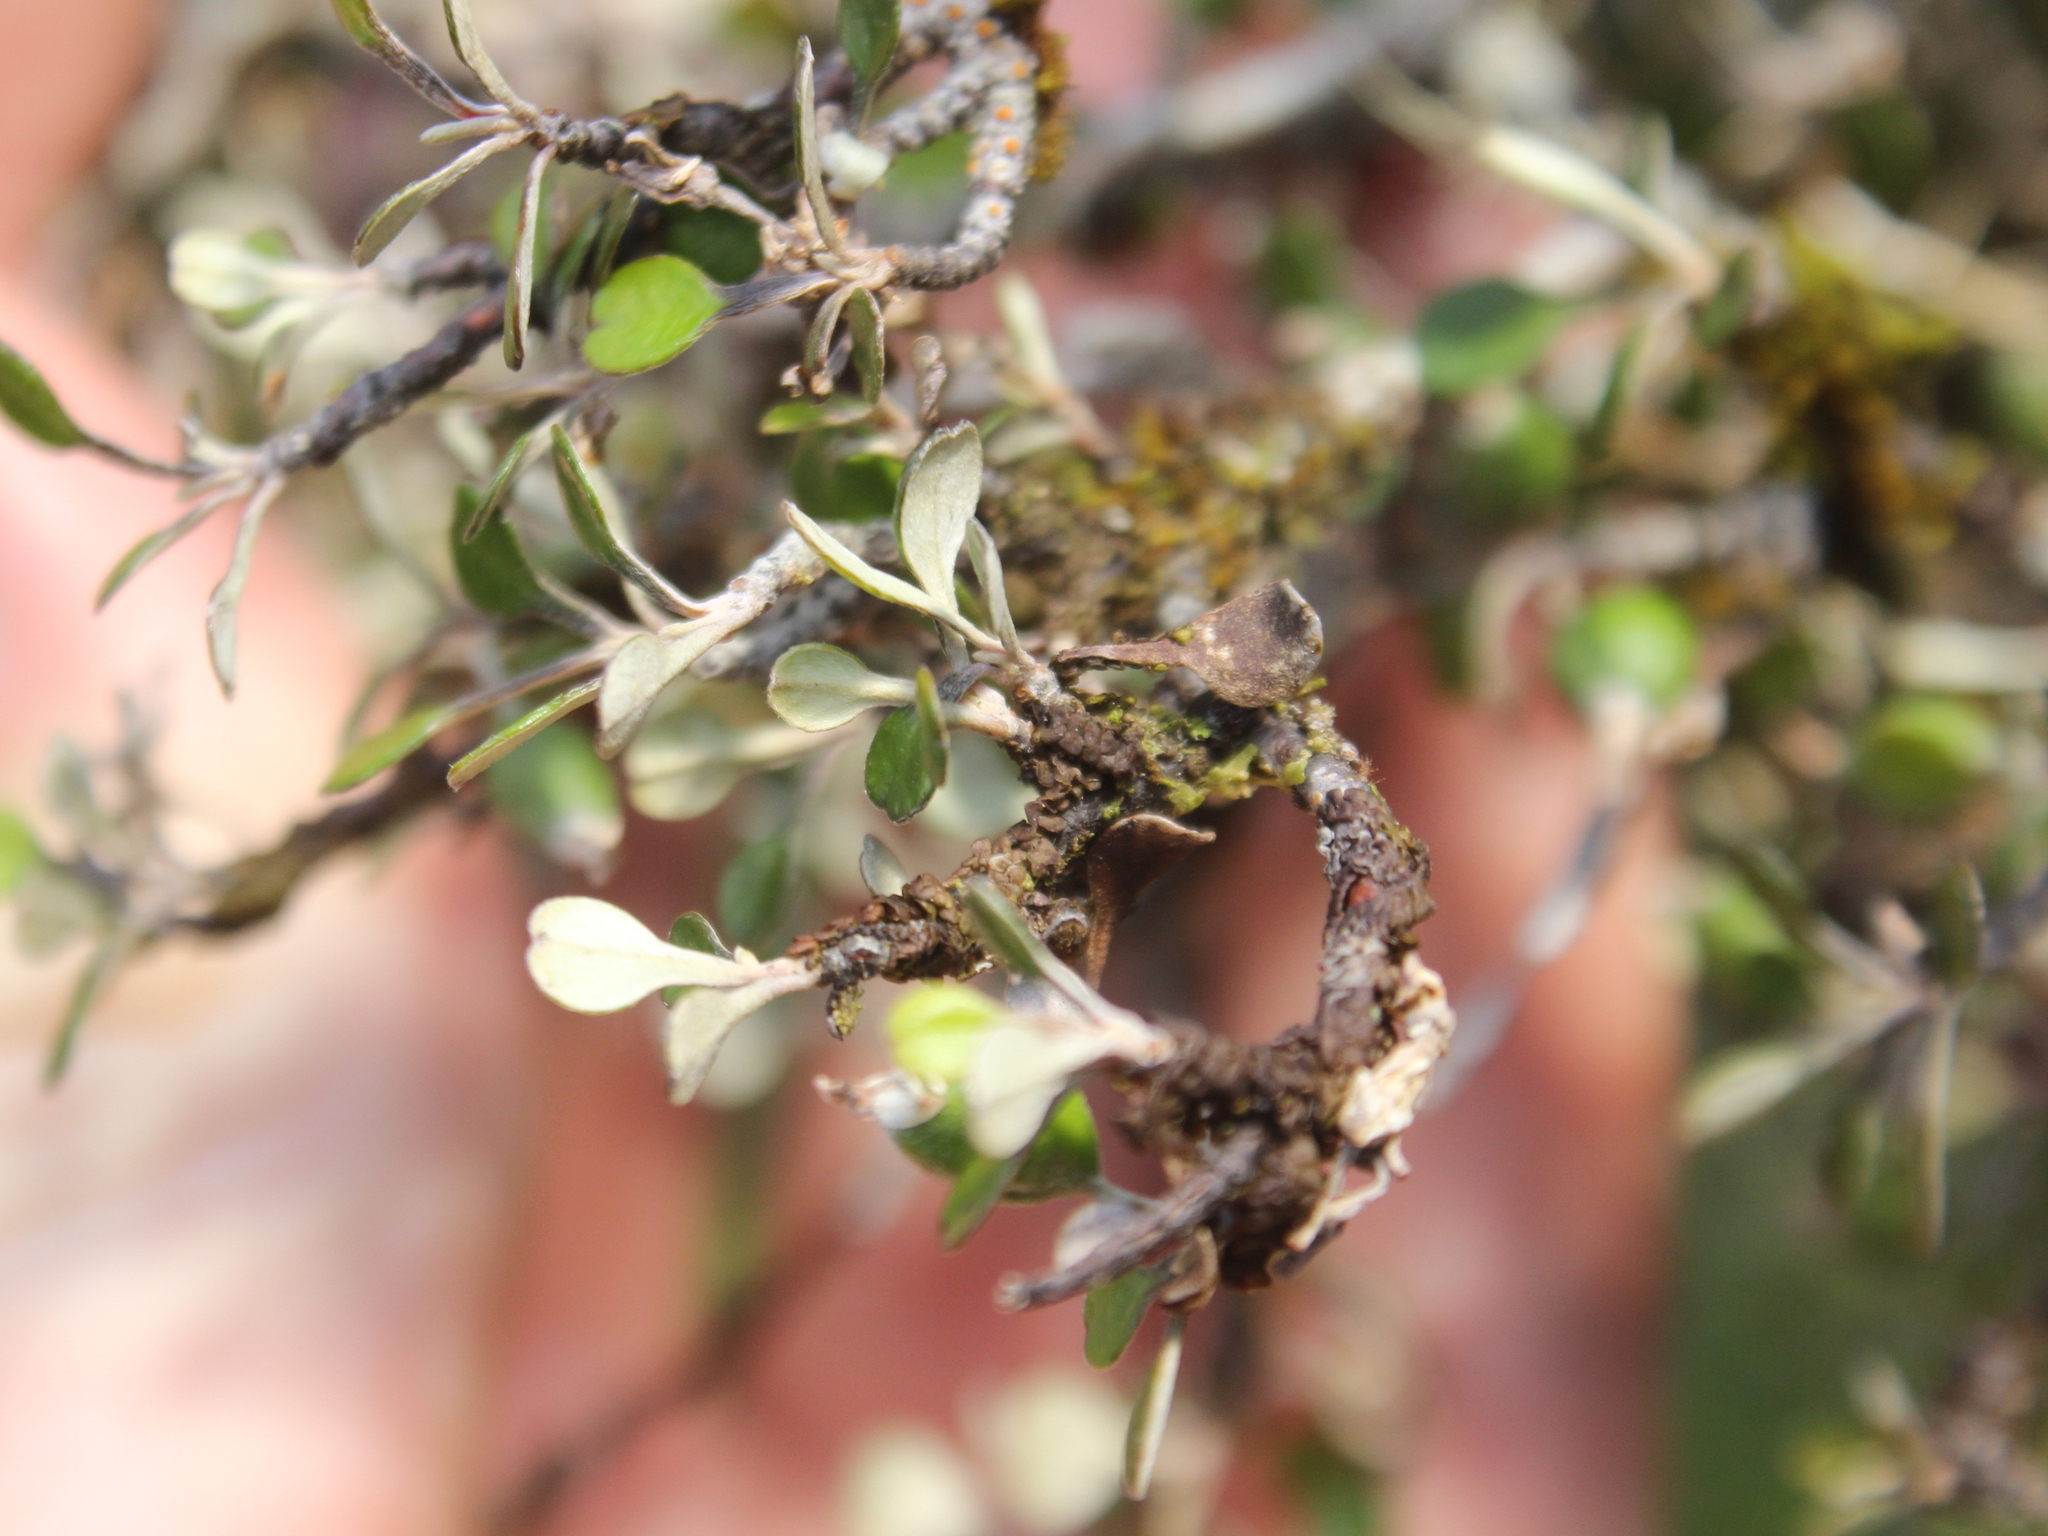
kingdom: Plantae
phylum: Tracheophyta
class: Magnoliopsida
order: Asterales
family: Argophyllaceae
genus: Corokia
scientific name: Corokia cotoneaster
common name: Wire nettingbush
